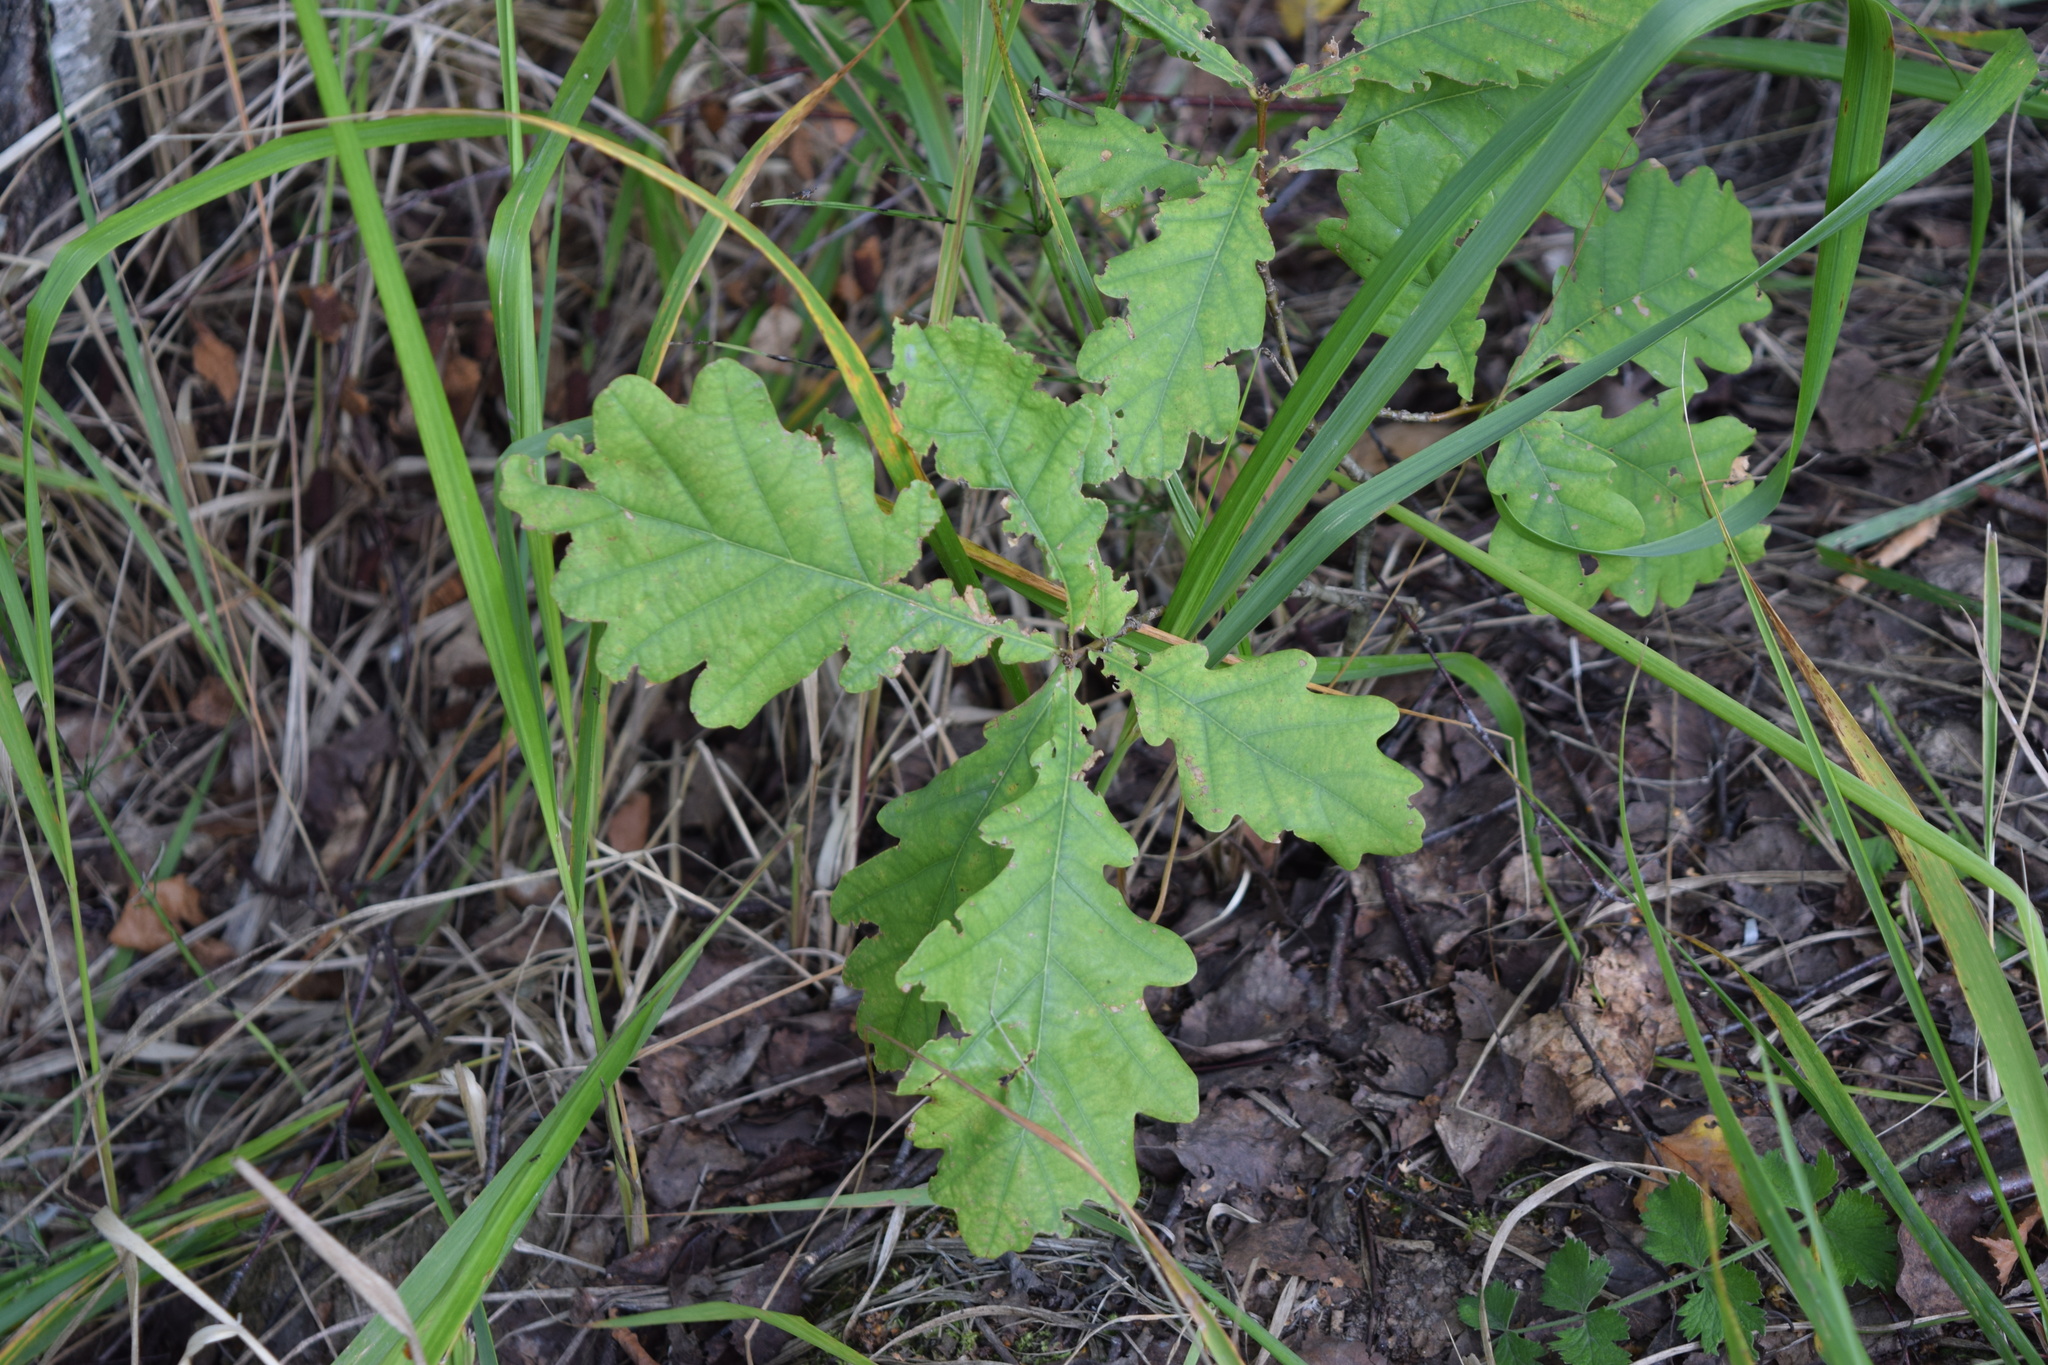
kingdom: Plantae
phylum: Tracheophyta
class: Magnoliopsida
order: Fagales
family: Fagaceae
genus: Quercus
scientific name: Quercus robur
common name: Pedunculate oak
